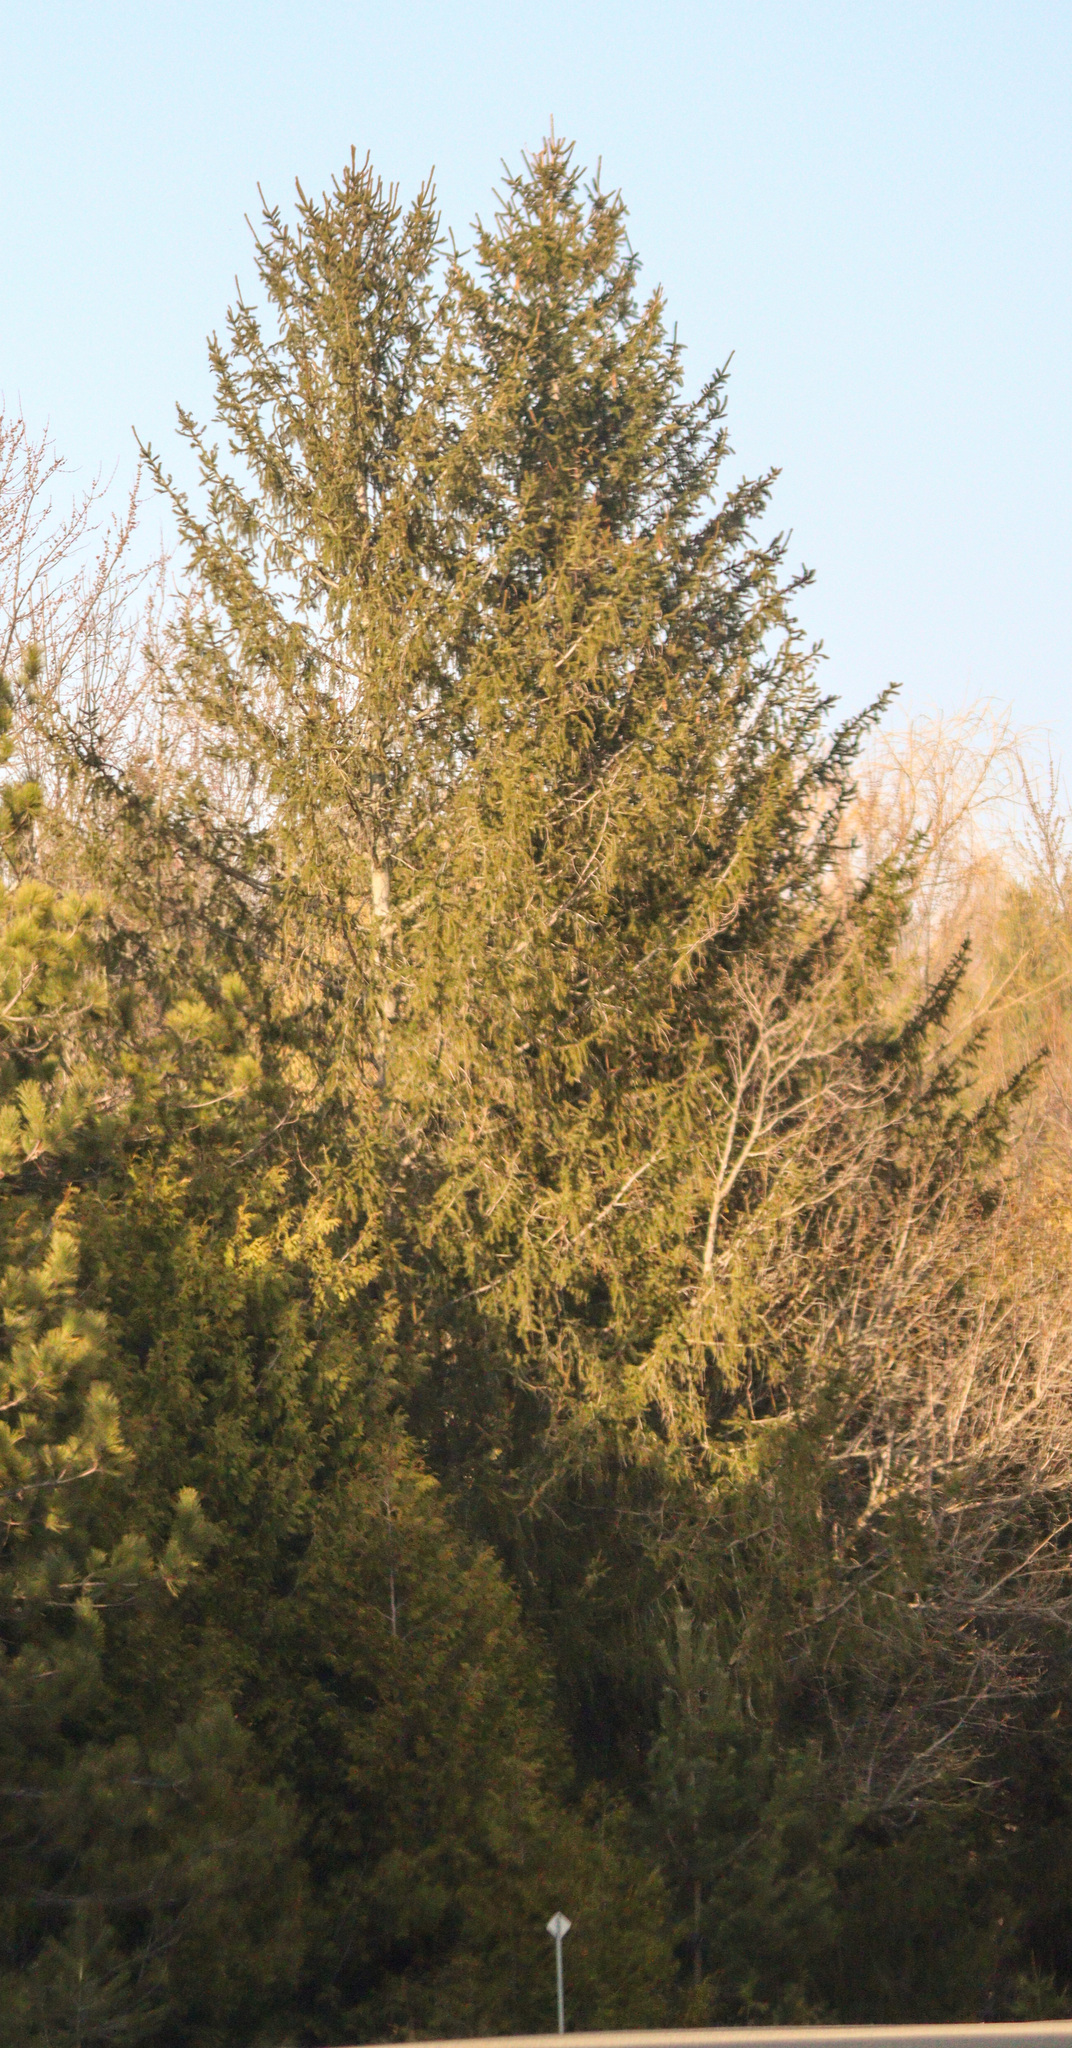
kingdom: Plantae
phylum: Tracheophyta
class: Pinopsida
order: Pinales
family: Pinaceae
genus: Picea
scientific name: Picea abies
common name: Norway spruce
